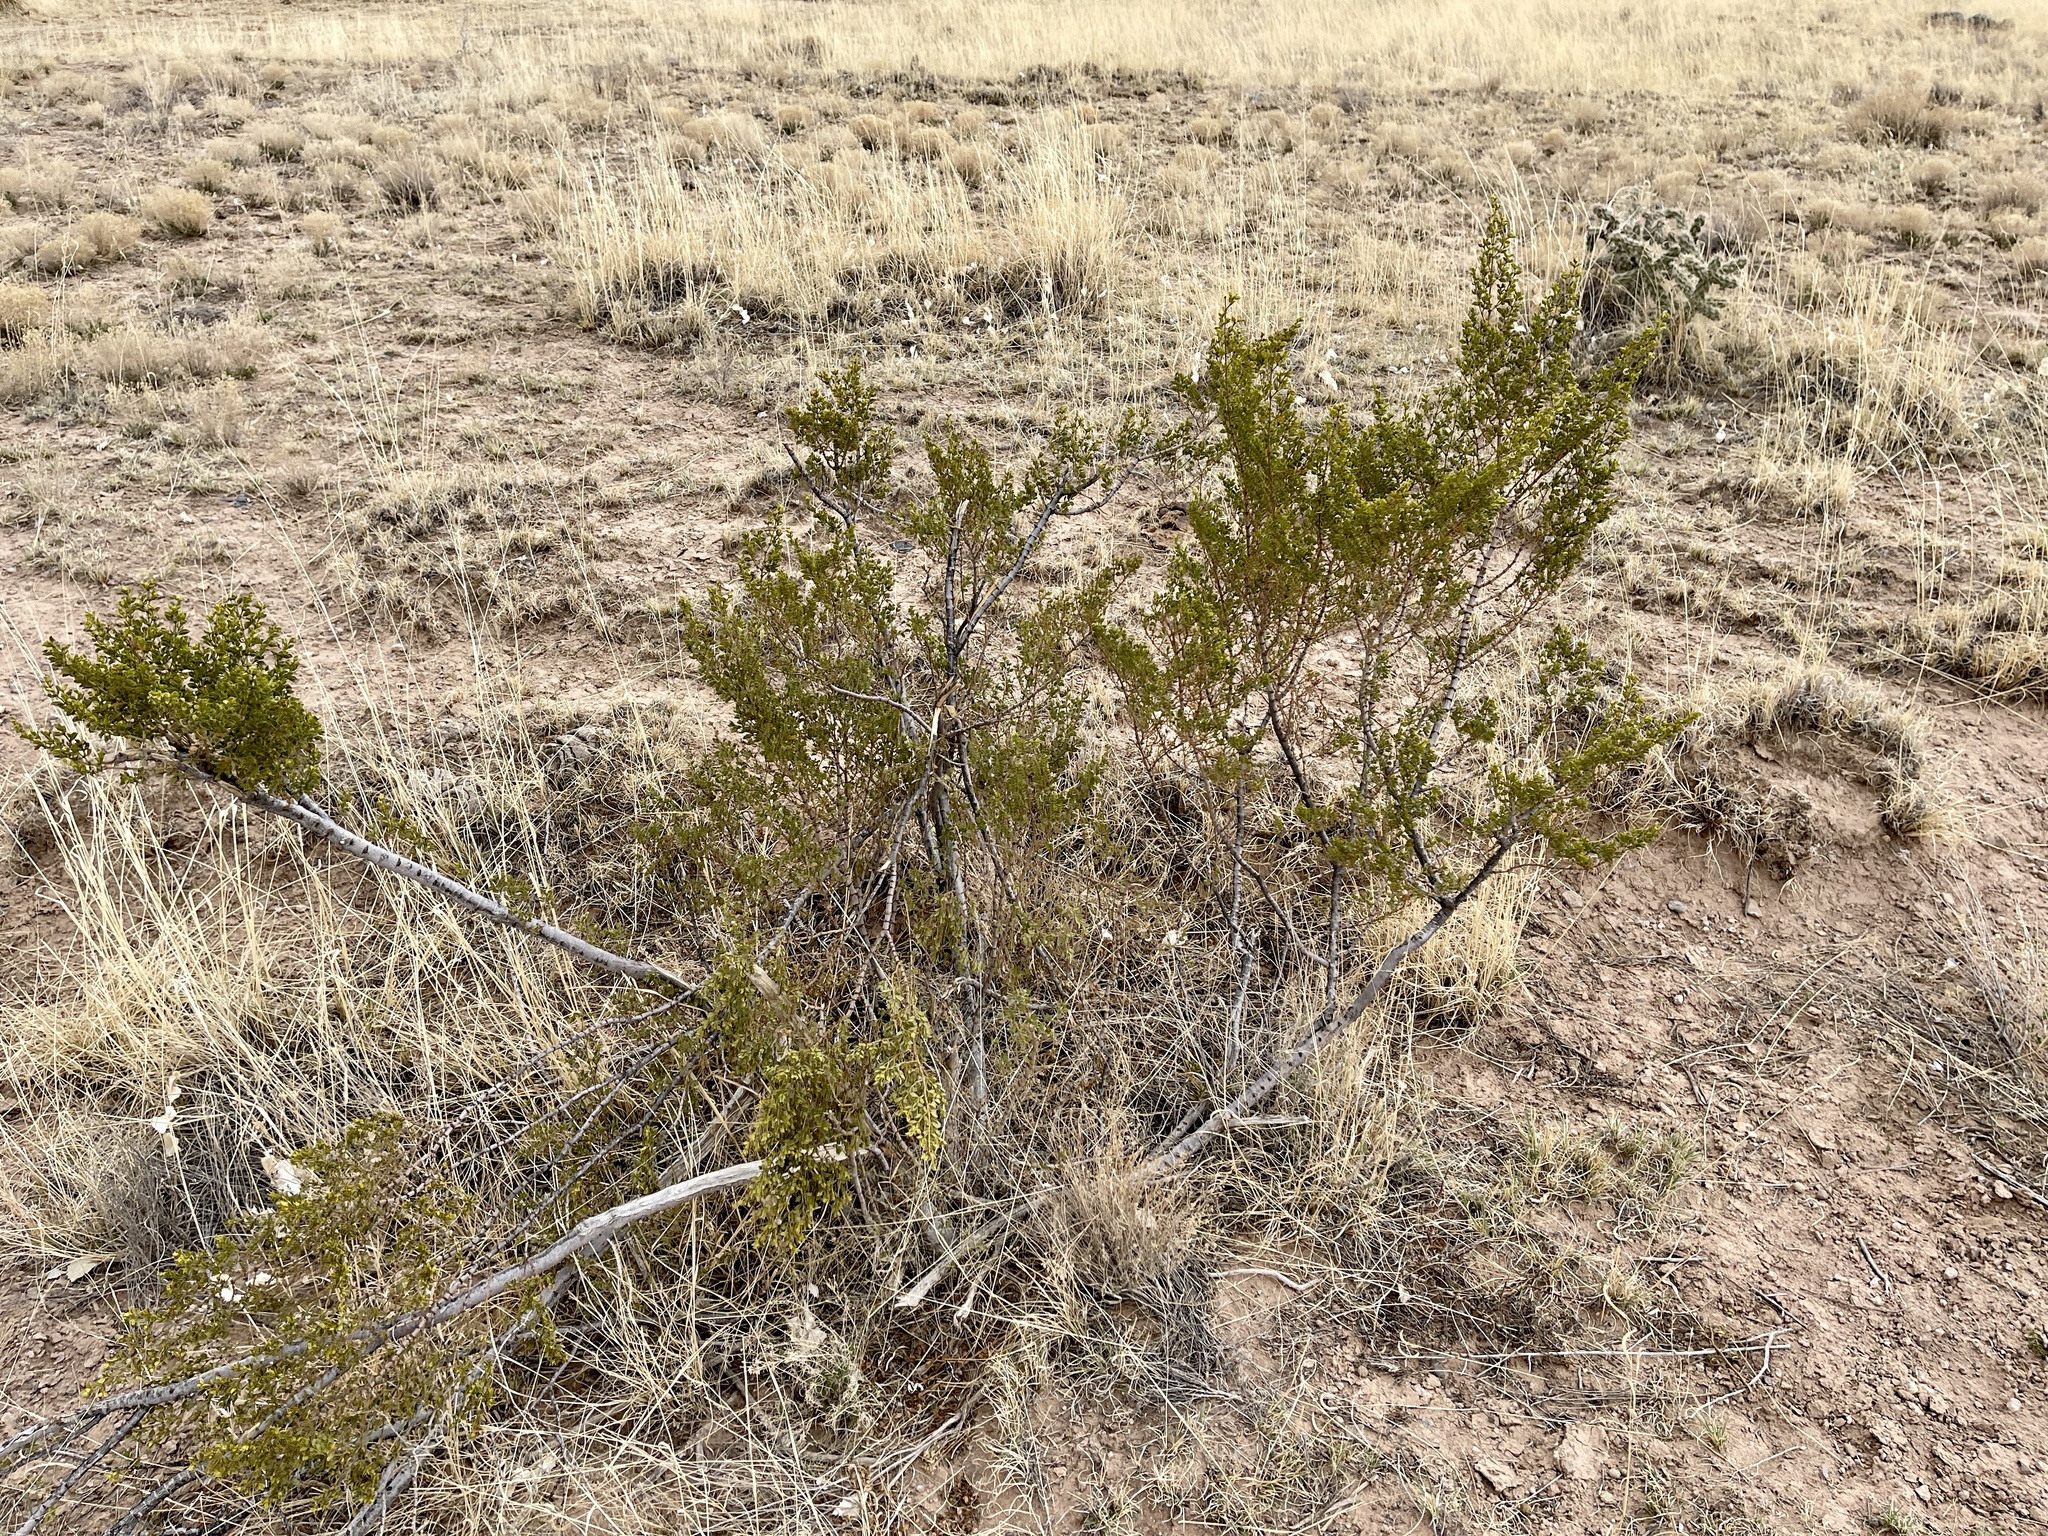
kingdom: Plantae
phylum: Tracheophyta
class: Magnoliopsida
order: Zygophyllales
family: Zygophyllaceae
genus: Larrea
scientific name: Larrea tridentata
